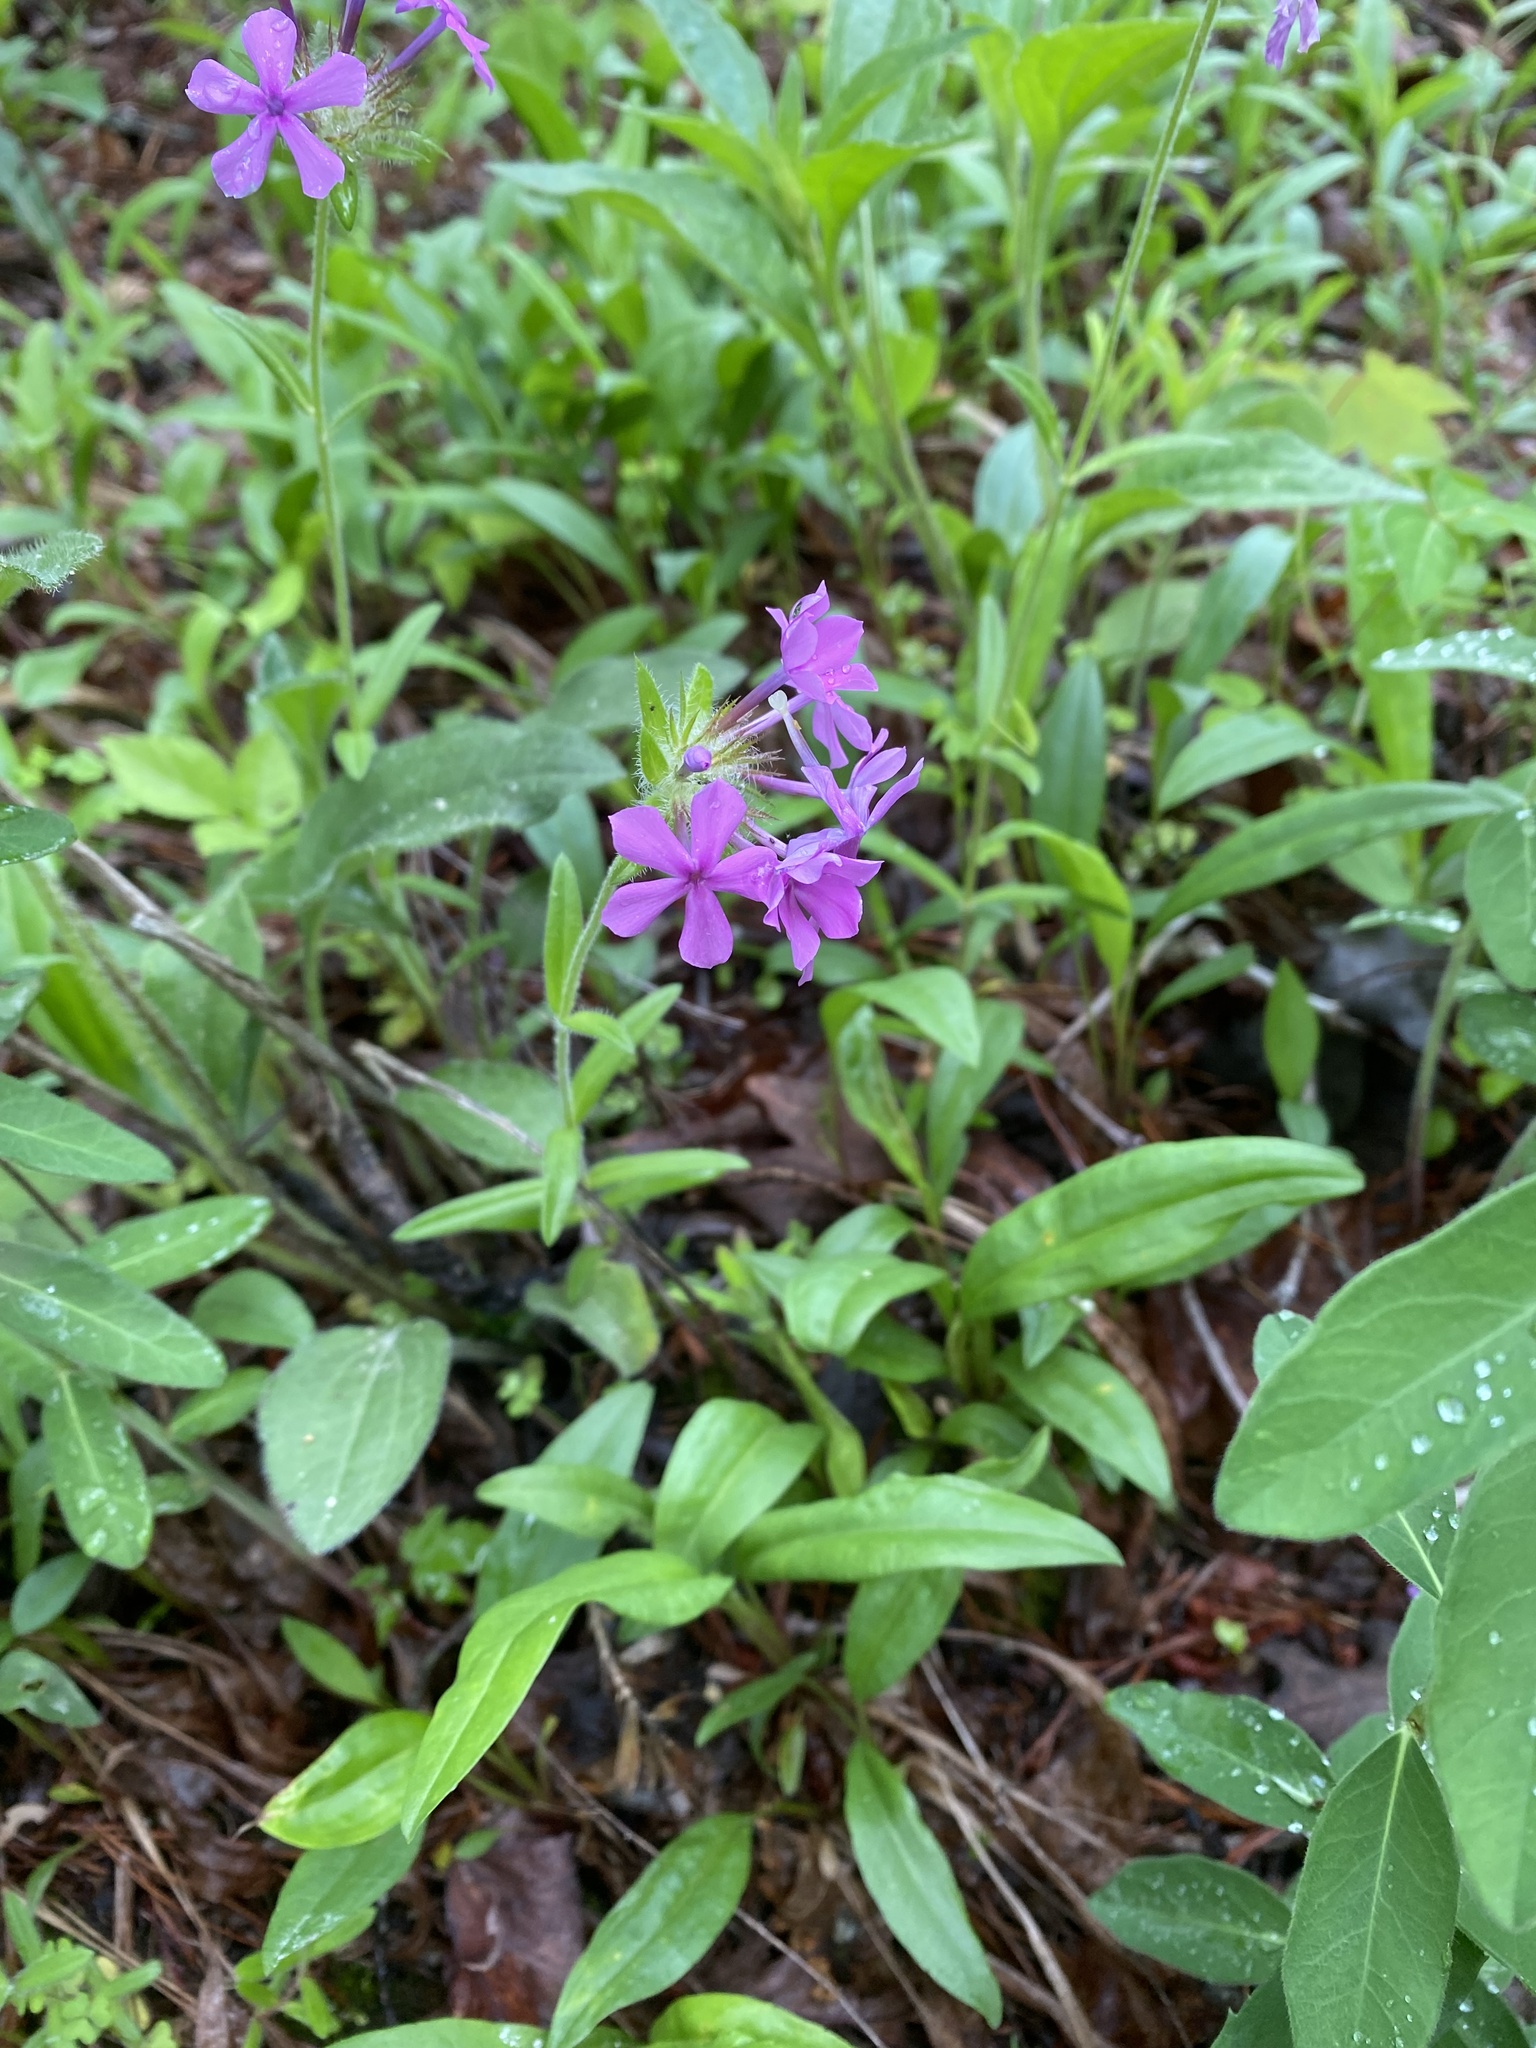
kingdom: Plantae
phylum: Tracheophyta
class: Magnoliopsida
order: Ericales
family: Polemoniaceae
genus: Phlox
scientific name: Phlox amoena
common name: Hairy phlox
